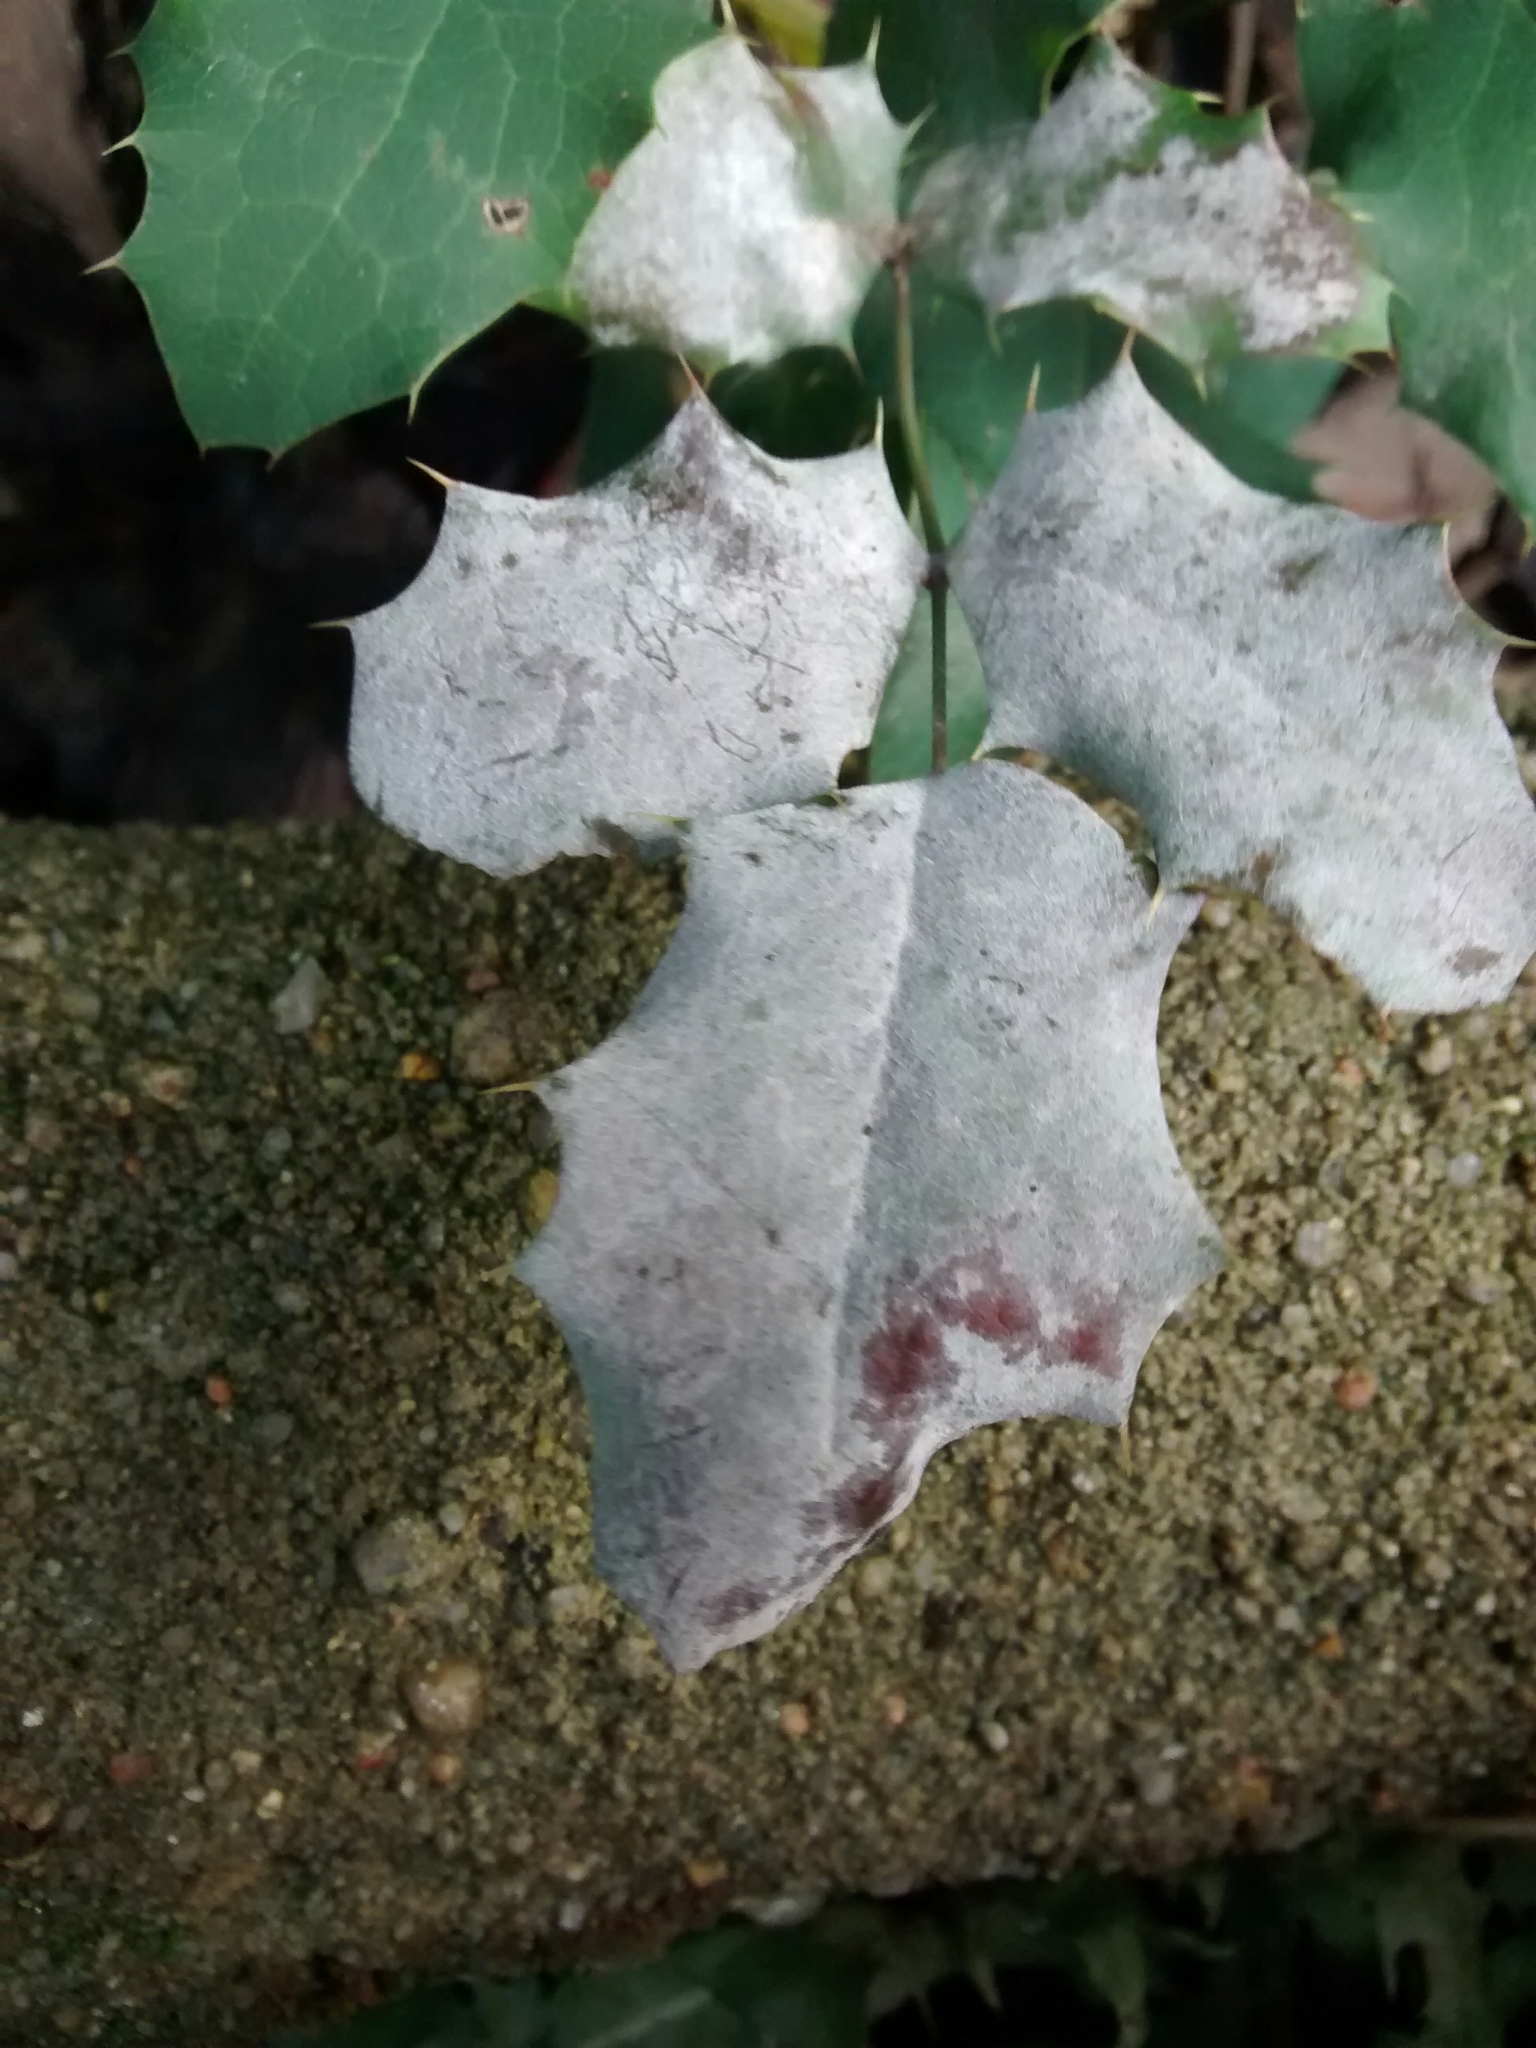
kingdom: Fungi
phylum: Ascomycota
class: Leotiomycetes
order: Helotiales
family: Erysiphaceae
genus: Erysiphe
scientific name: Erysiphe berberidis
